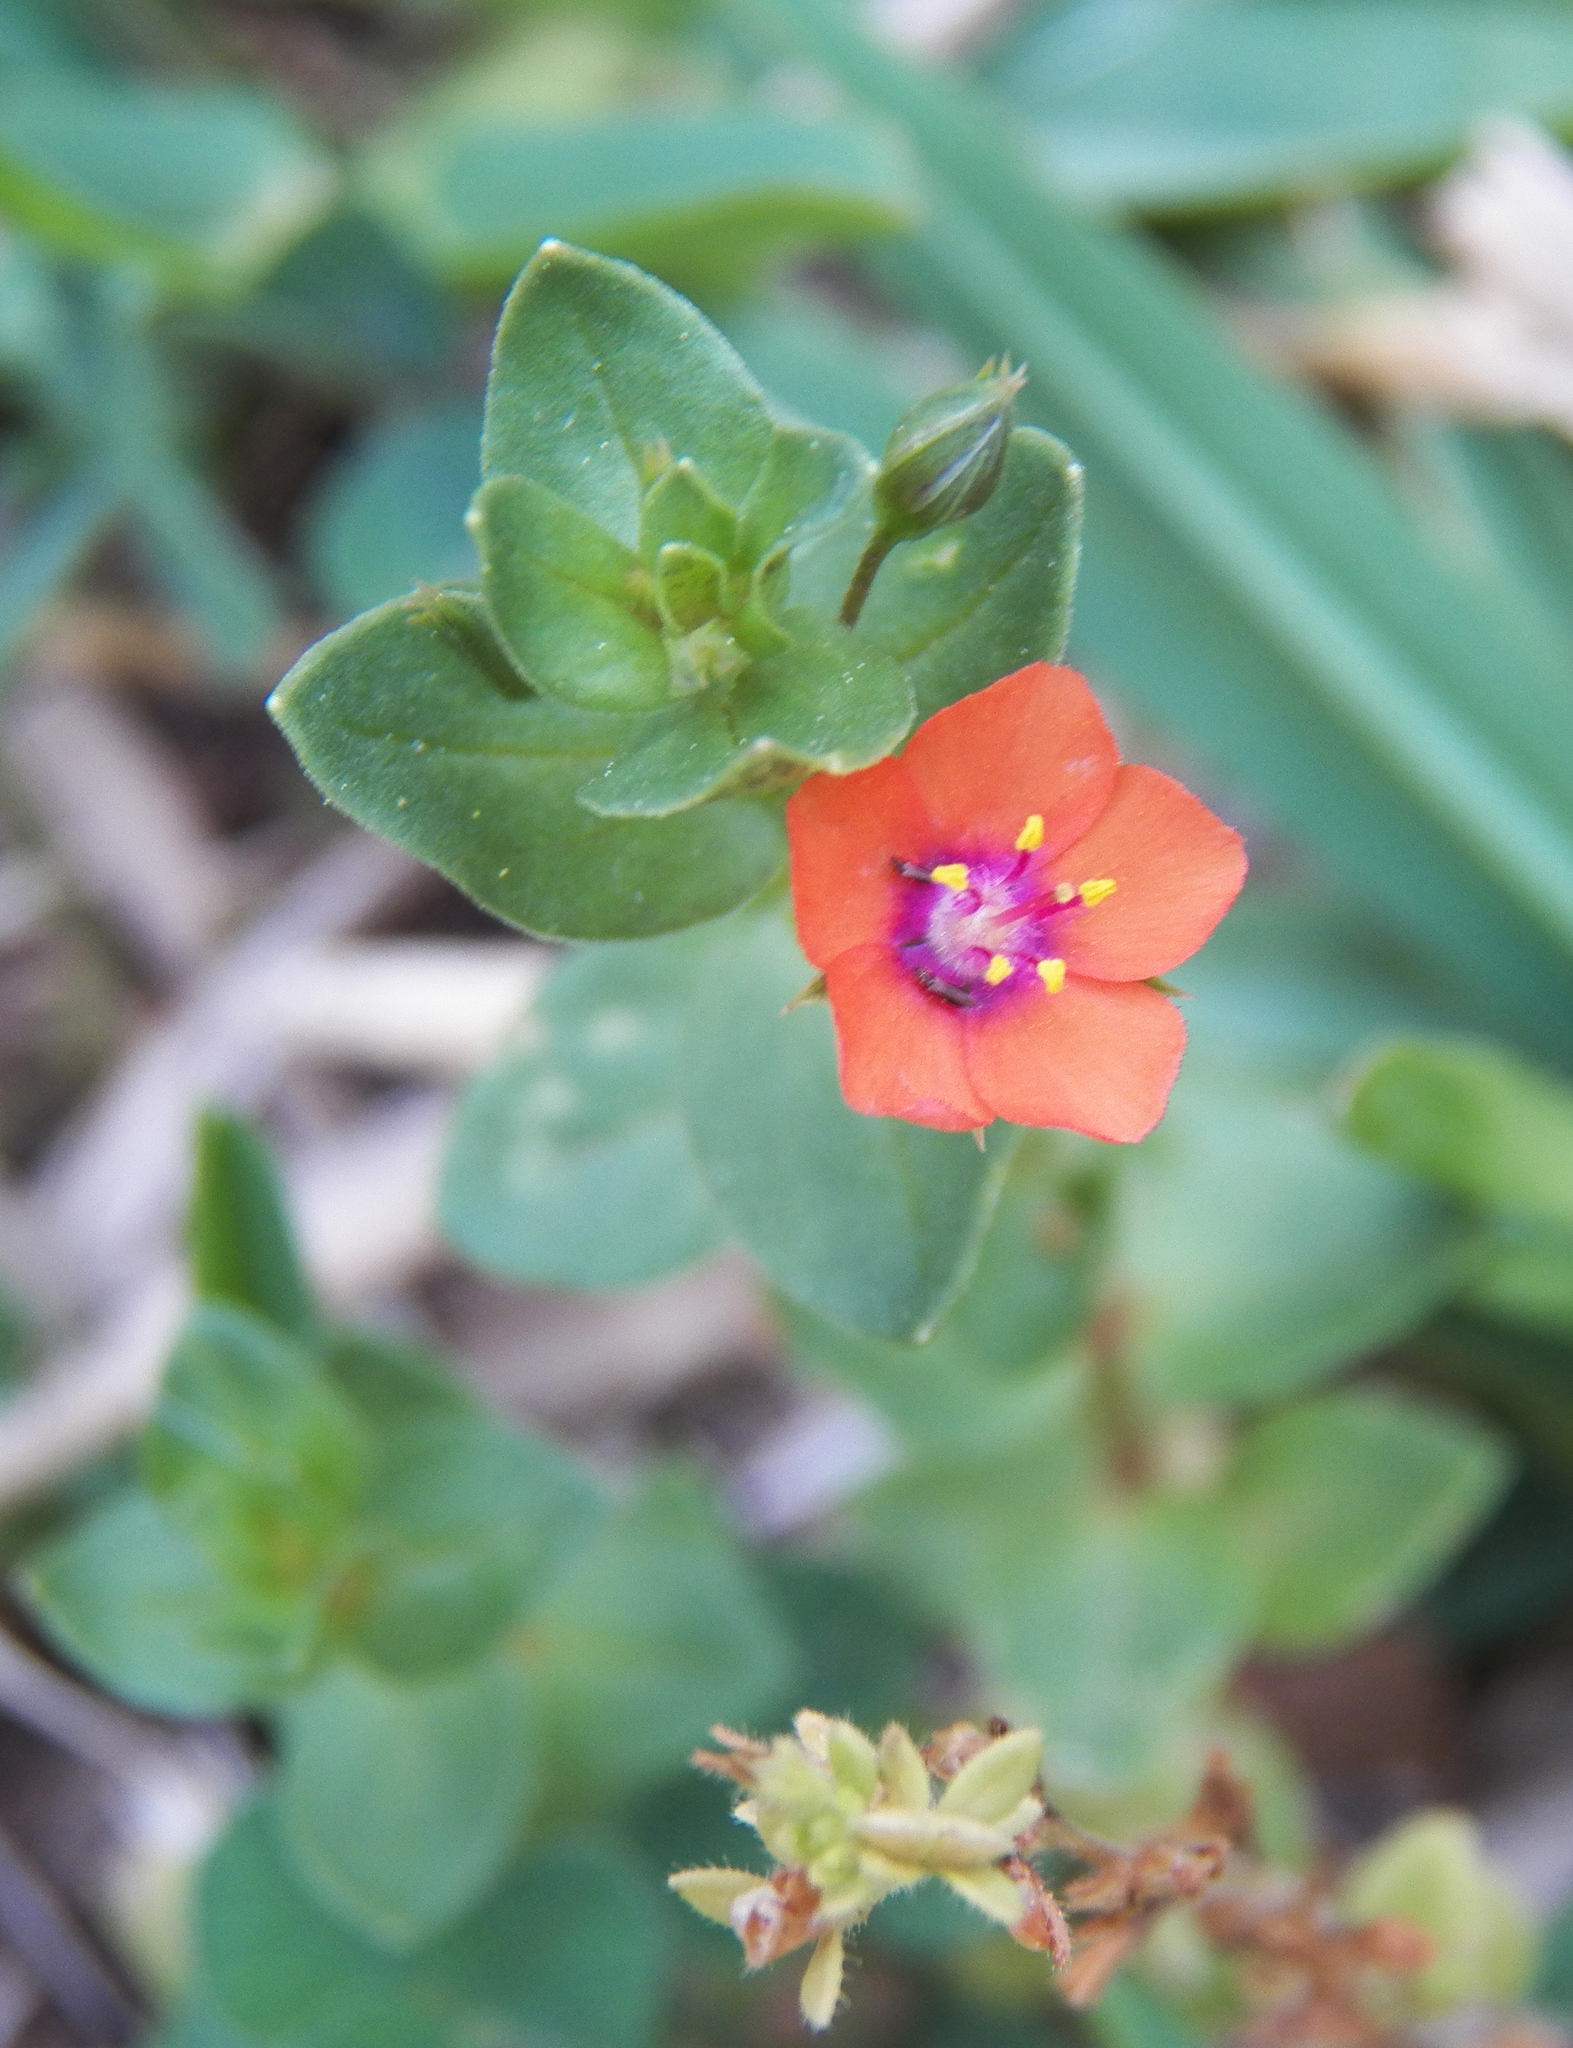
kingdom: Plantae
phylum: Tracheophyta
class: Magnoliopsida
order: Ericales
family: Primulaceae
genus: Lysimachia
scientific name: Lysimachia arvensis
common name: Scarlet pimpernel
